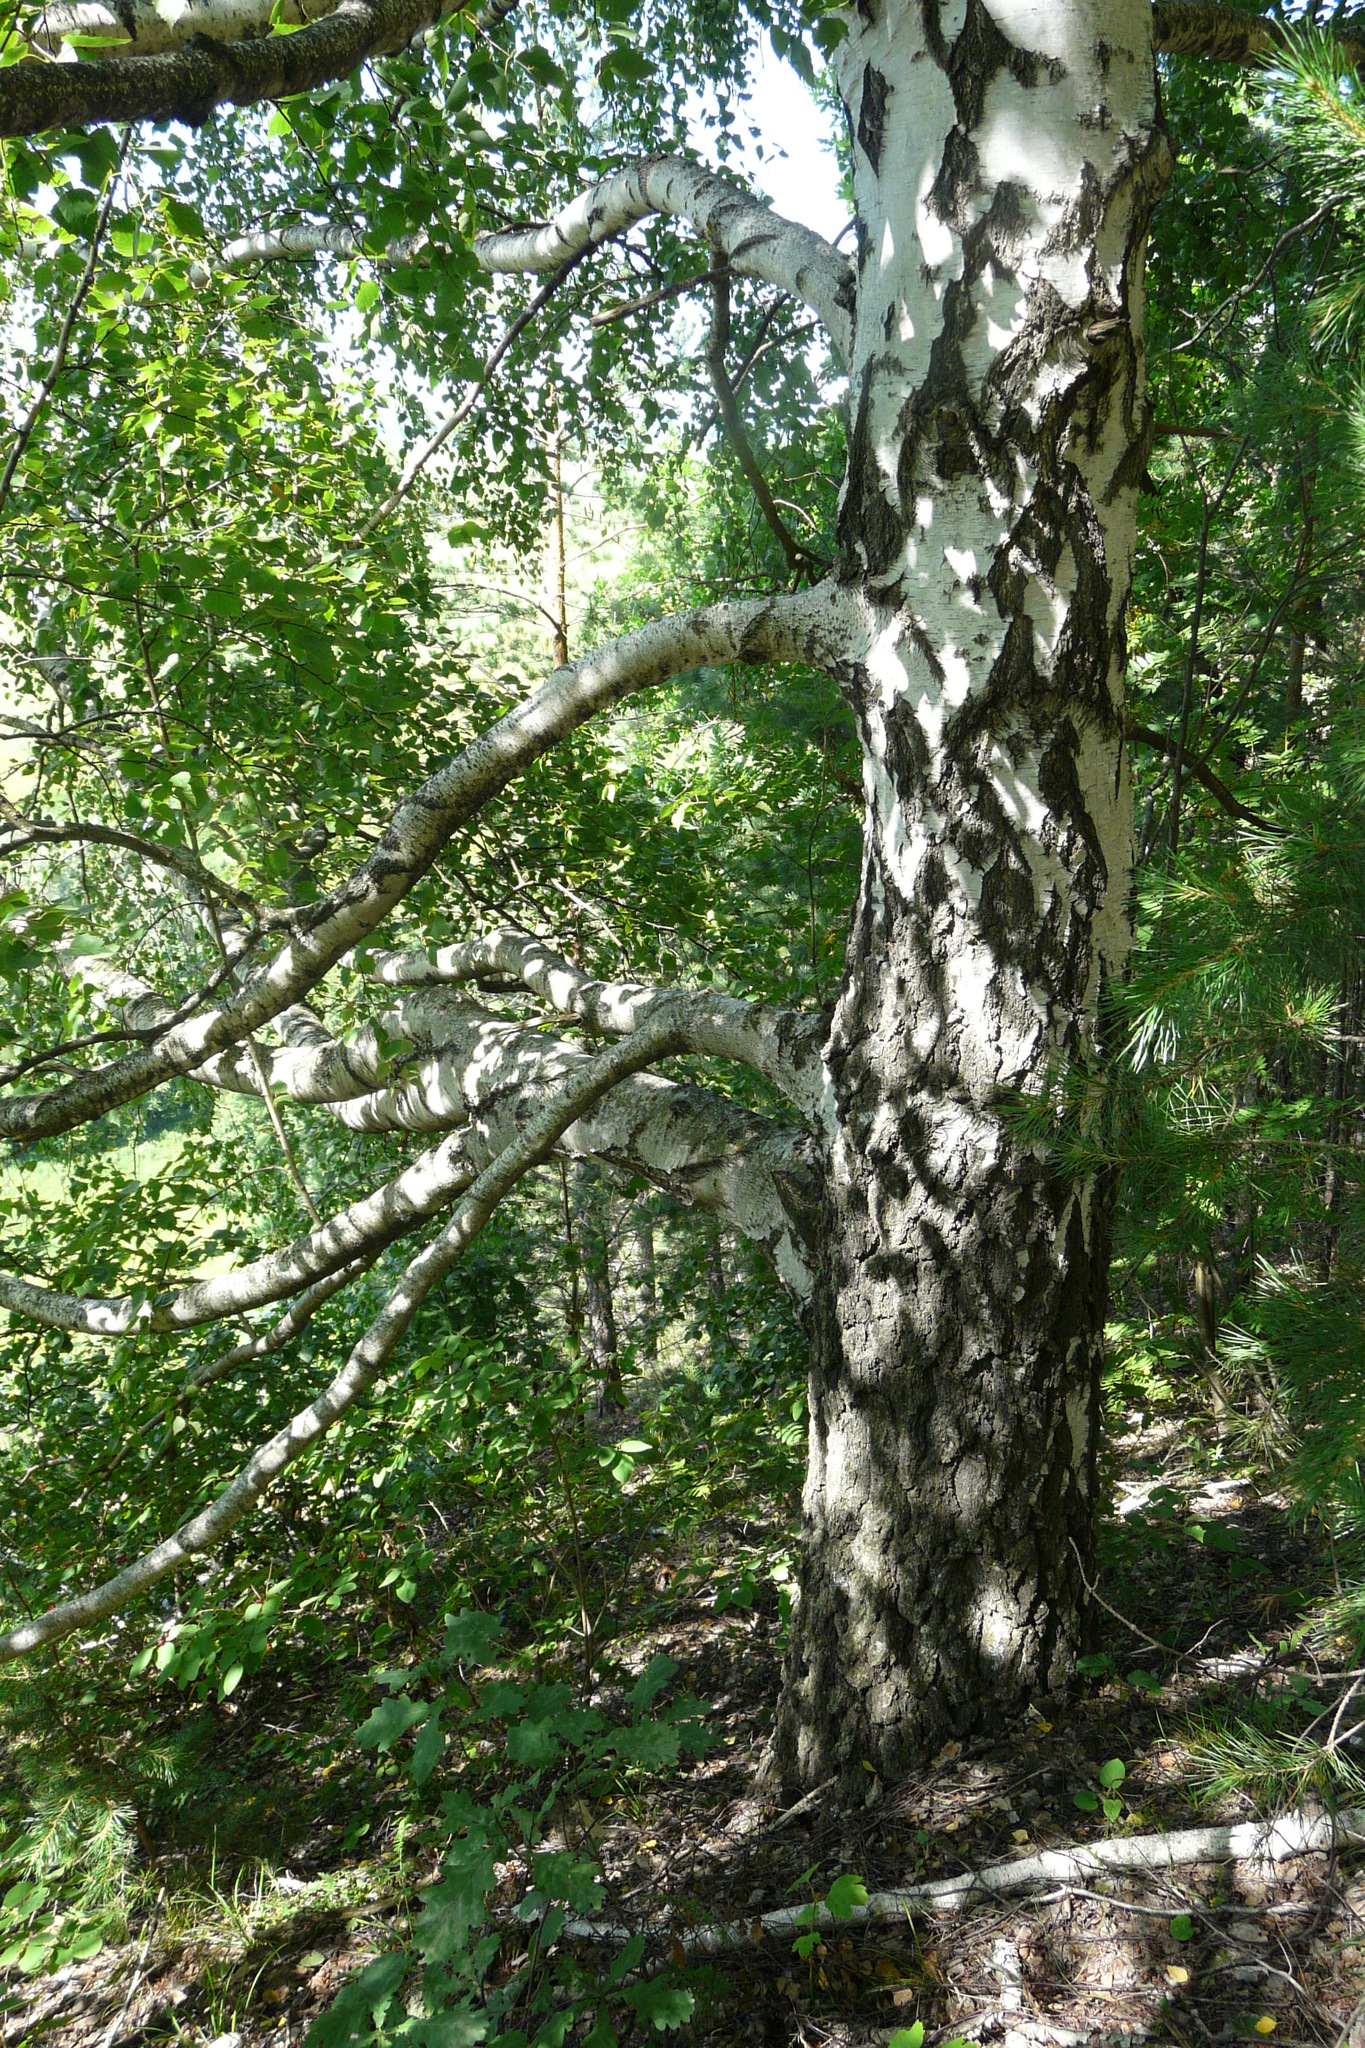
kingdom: Plantae
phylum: Tracheophyta
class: Magnoliopsida
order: Fagales
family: Betulaceae
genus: Betula
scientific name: Betula pendula
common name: Silver birch
